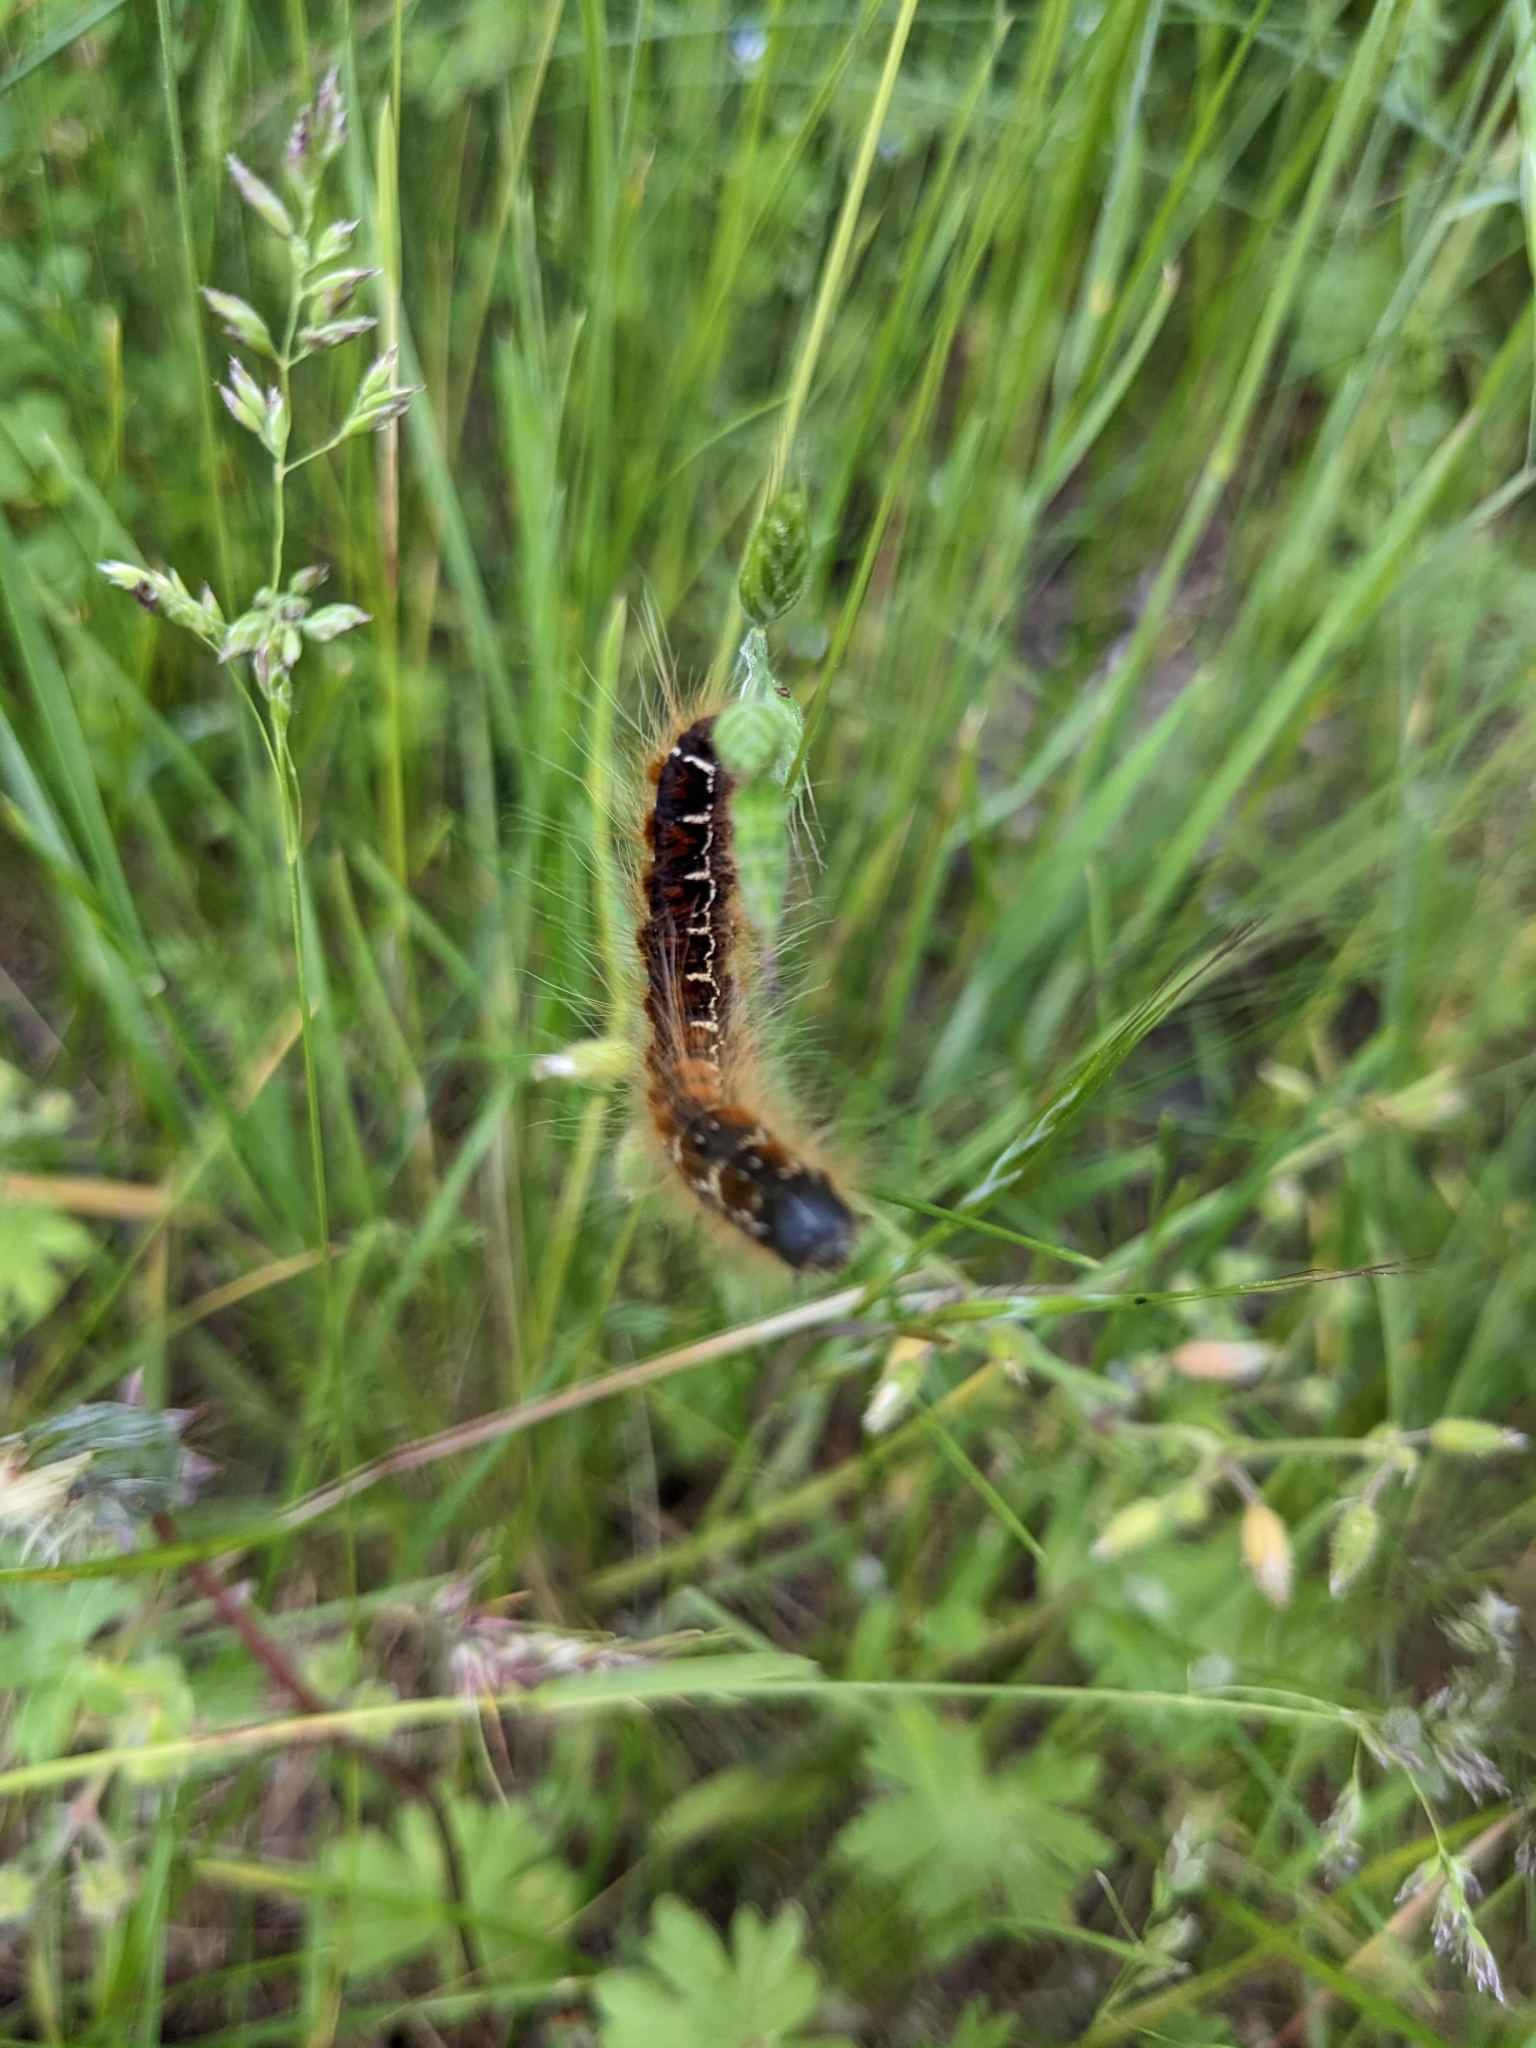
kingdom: Animalia
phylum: Arthropoda
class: Insecta
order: Lepidoptera
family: Lasiocampidae
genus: Eriogaster
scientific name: Eriogaster lanestris
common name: Small eggar
